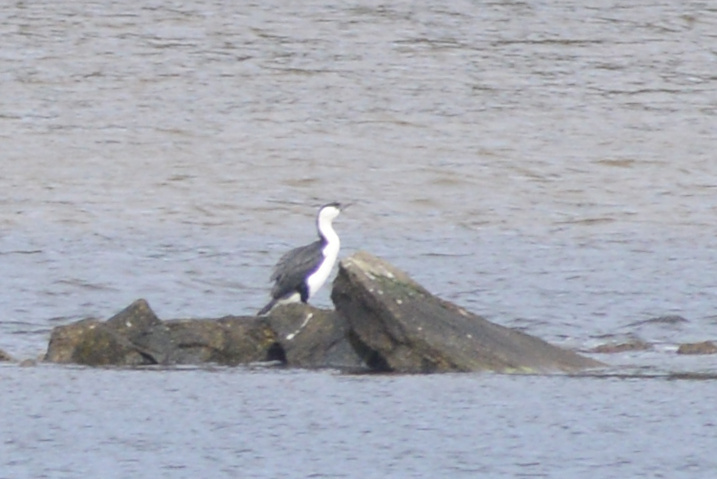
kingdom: Animalia
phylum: Chordata
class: Aves
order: Suliformes
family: Phalacrocoracidae
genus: Phalacrocorax
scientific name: Phalacrocorax fuscescens
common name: Black-faced cormorant
